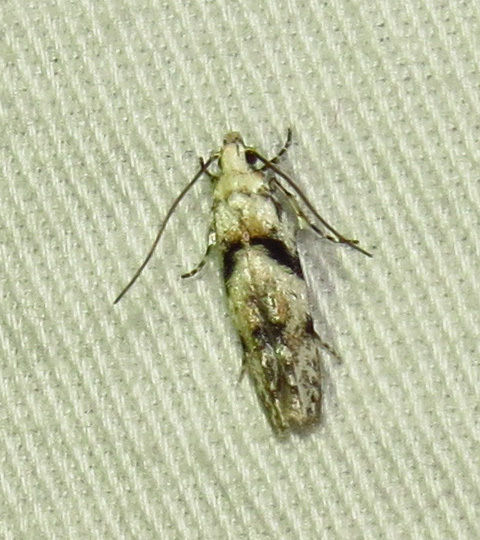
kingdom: Animalia
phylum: Arthropoda
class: Insecta
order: Lepidoptera
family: Gelechiidae
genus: Arogalea
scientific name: Arogalea cristifasciella
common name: White stripe-backed moth
